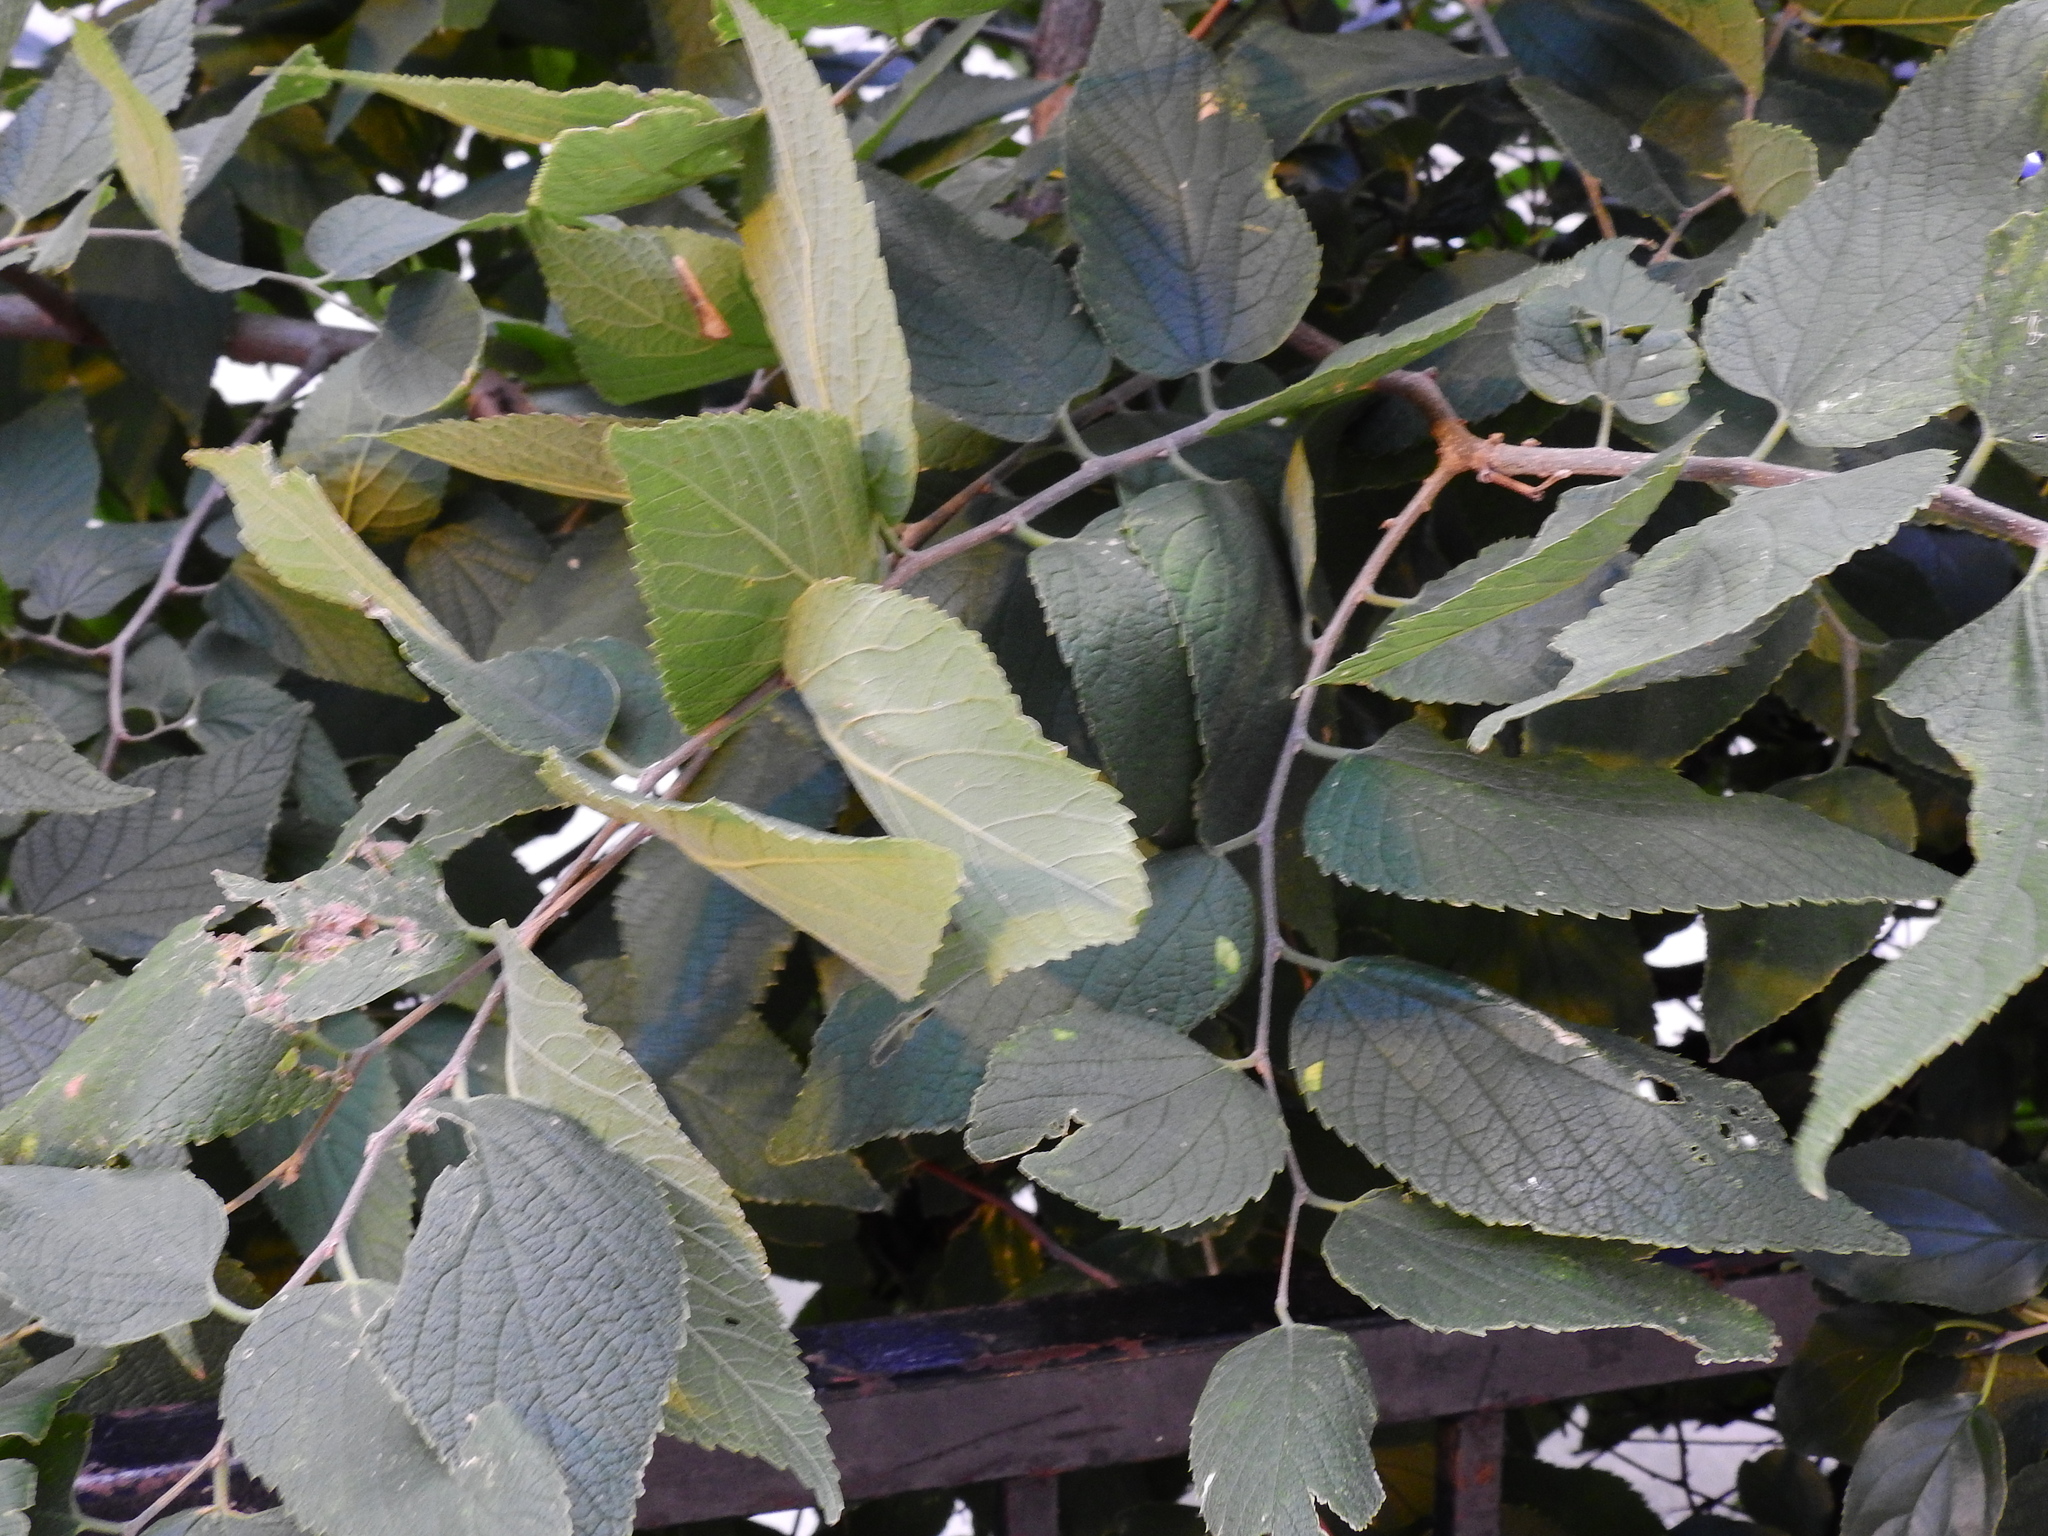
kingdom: Plantae
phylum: Tracheophyta
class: Magnoliopsida
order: Rosales
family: Cannabaceae
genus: Celtis
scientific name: Celtis occidentalis
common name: Common hackberry
